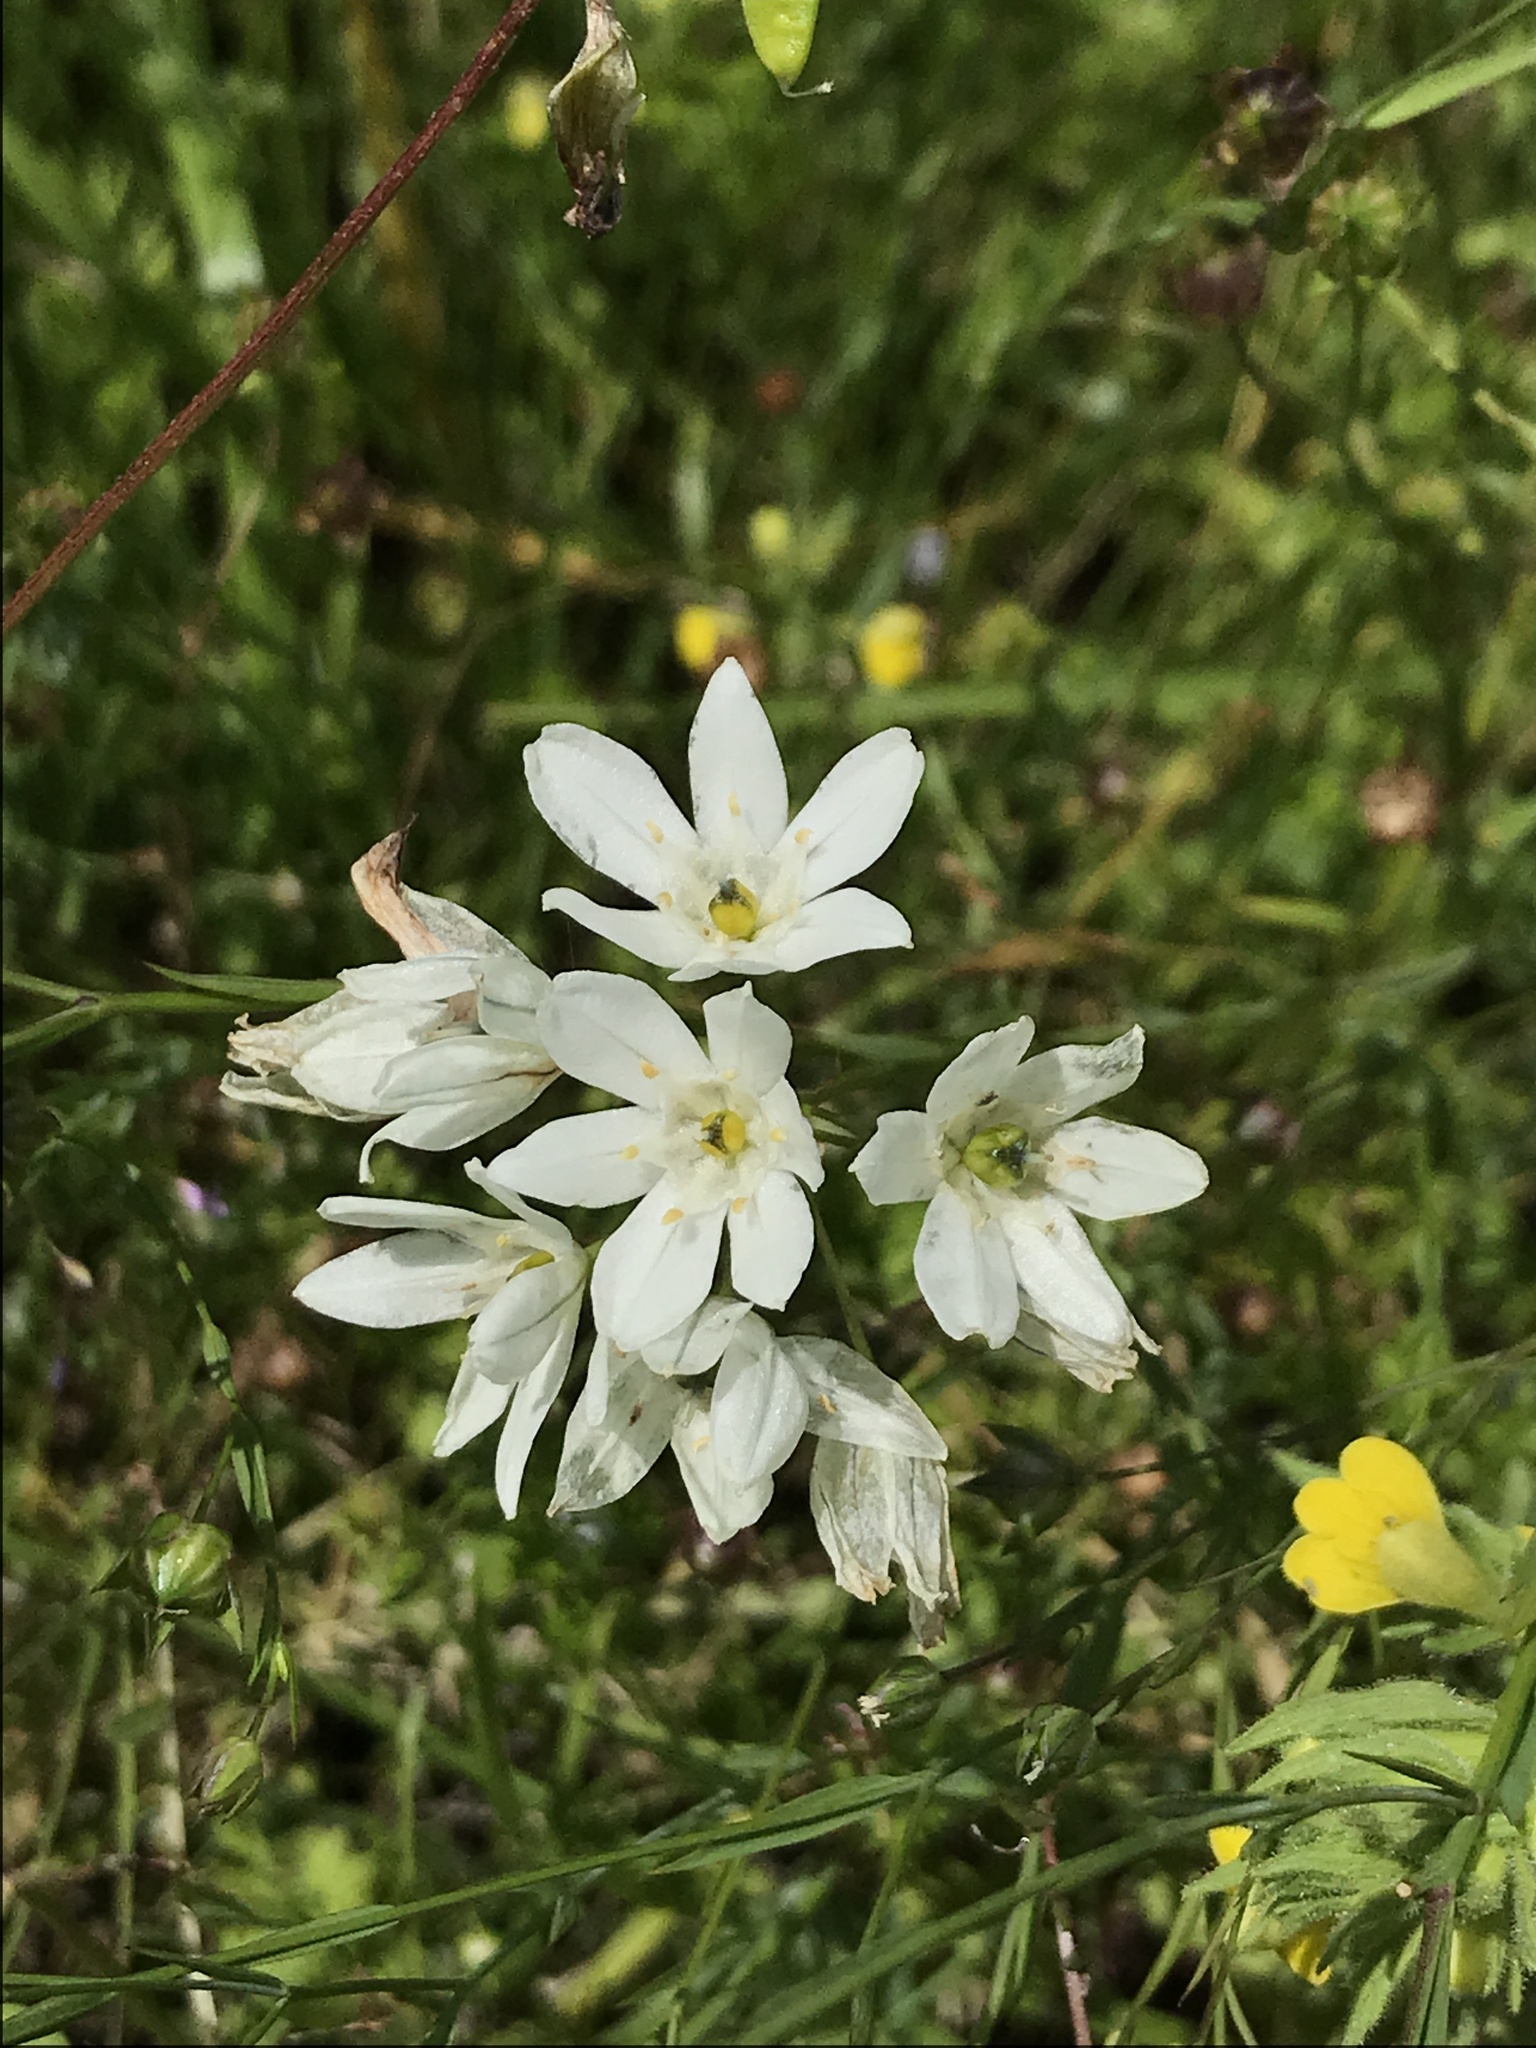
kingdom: Plantae
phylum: Tracheophyta
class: Liliopsida
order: Asparagales
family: Asparagaceae
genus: Triteleia
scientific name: Triteleia hyacinthina
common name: White brodiaea
